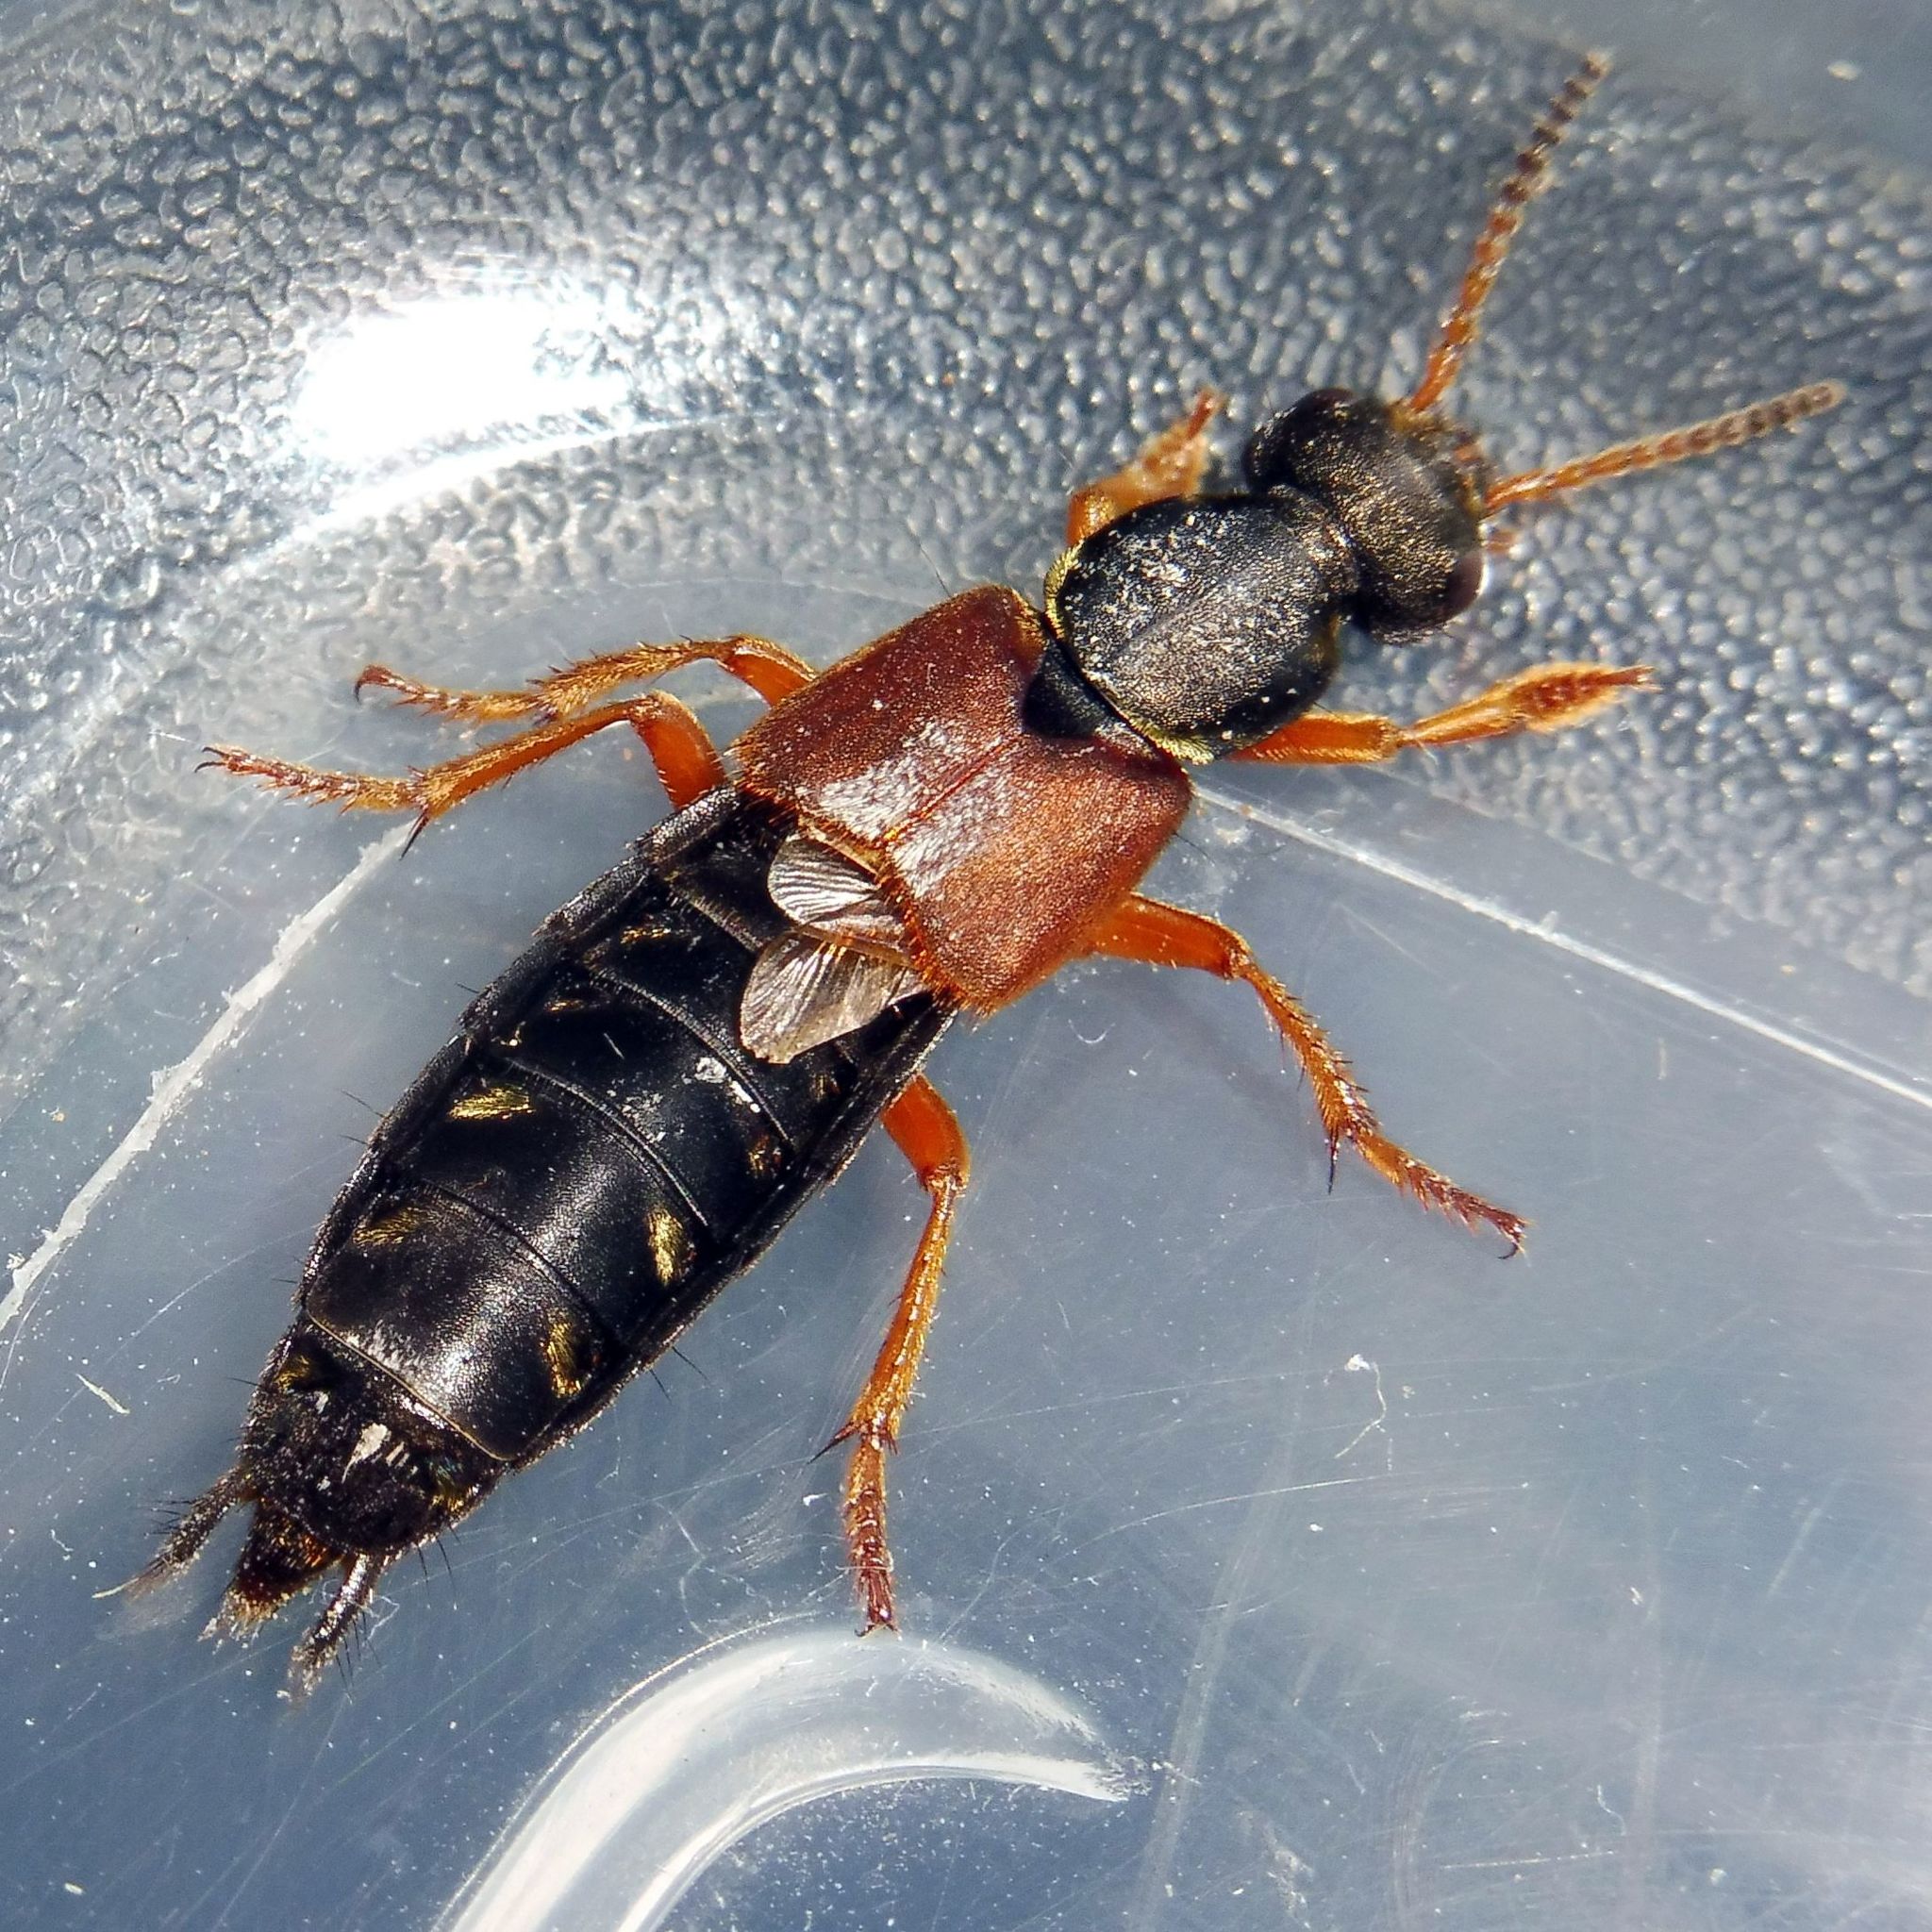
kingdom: Animalia
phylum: Arthropoda
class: Insecta
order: Coleoptera
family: Staphylinidae
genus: Staphylinus
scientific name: Staphylinus dimidiaticornis
